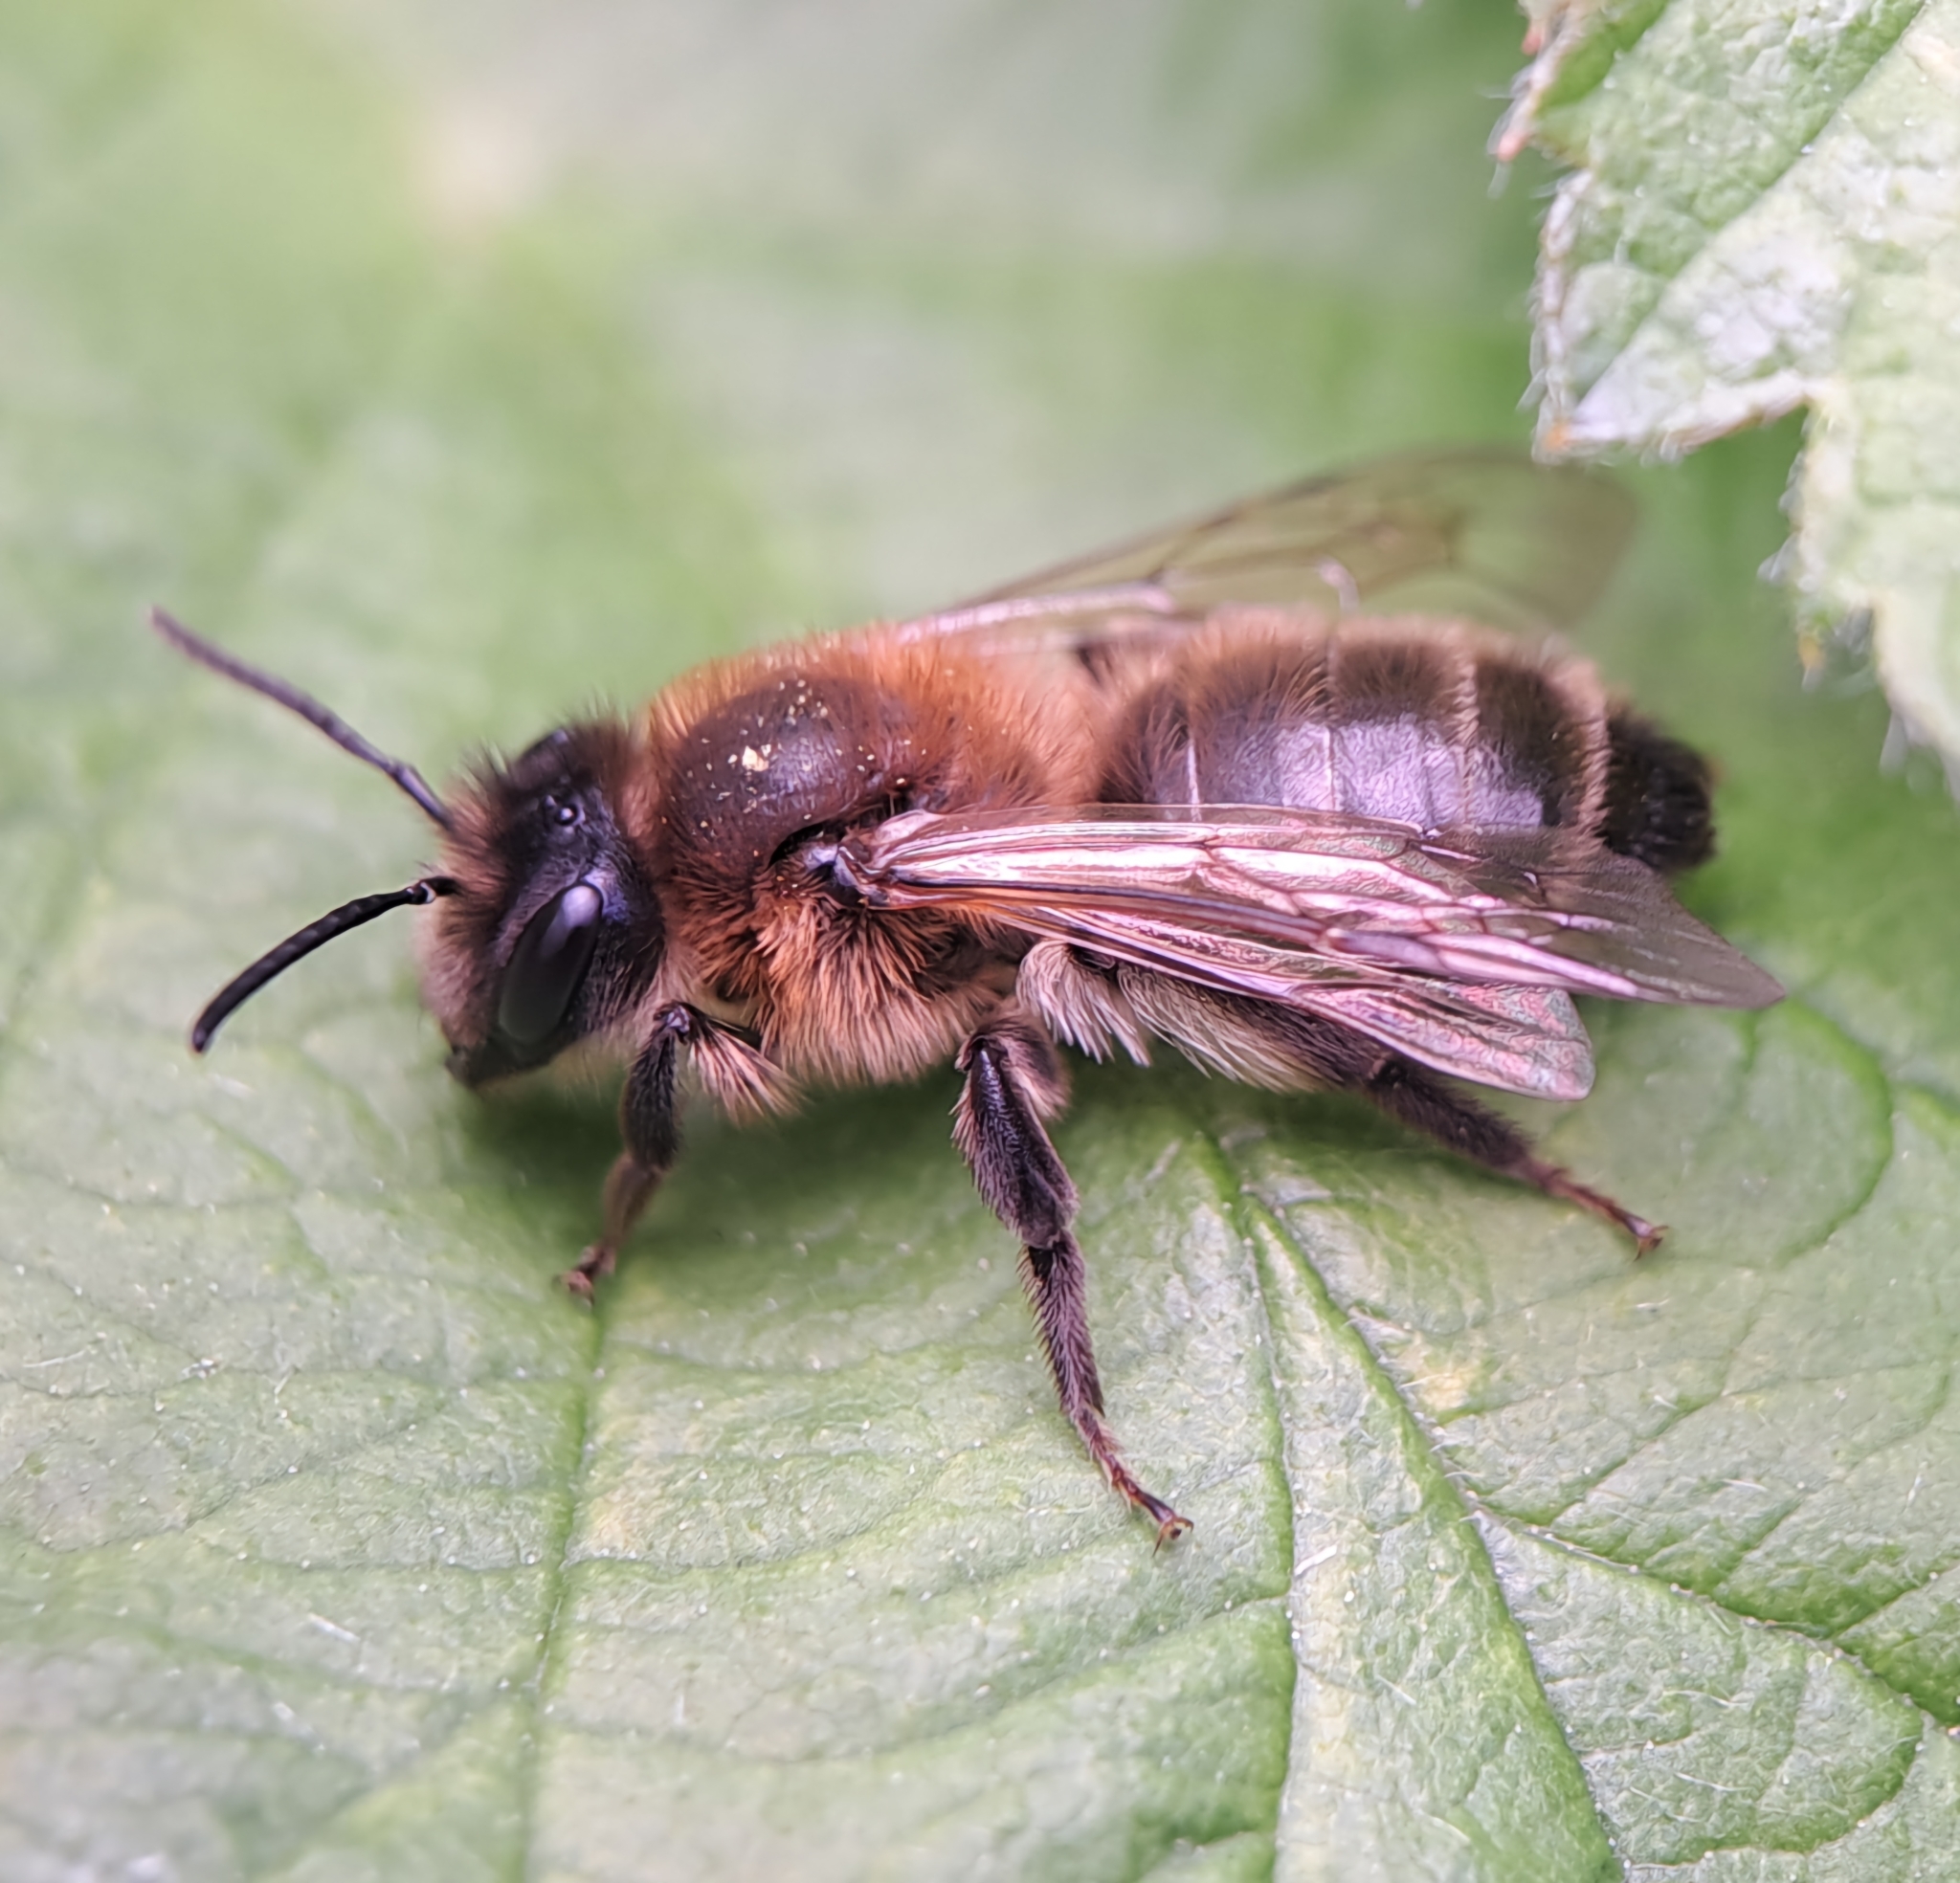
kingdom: Animalia
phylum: Arthropoda
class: Insecta
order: Hymenoptera
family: Andrenidae
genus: Andrena
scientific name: Andrena carantonica
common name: Chocolate mining bee
